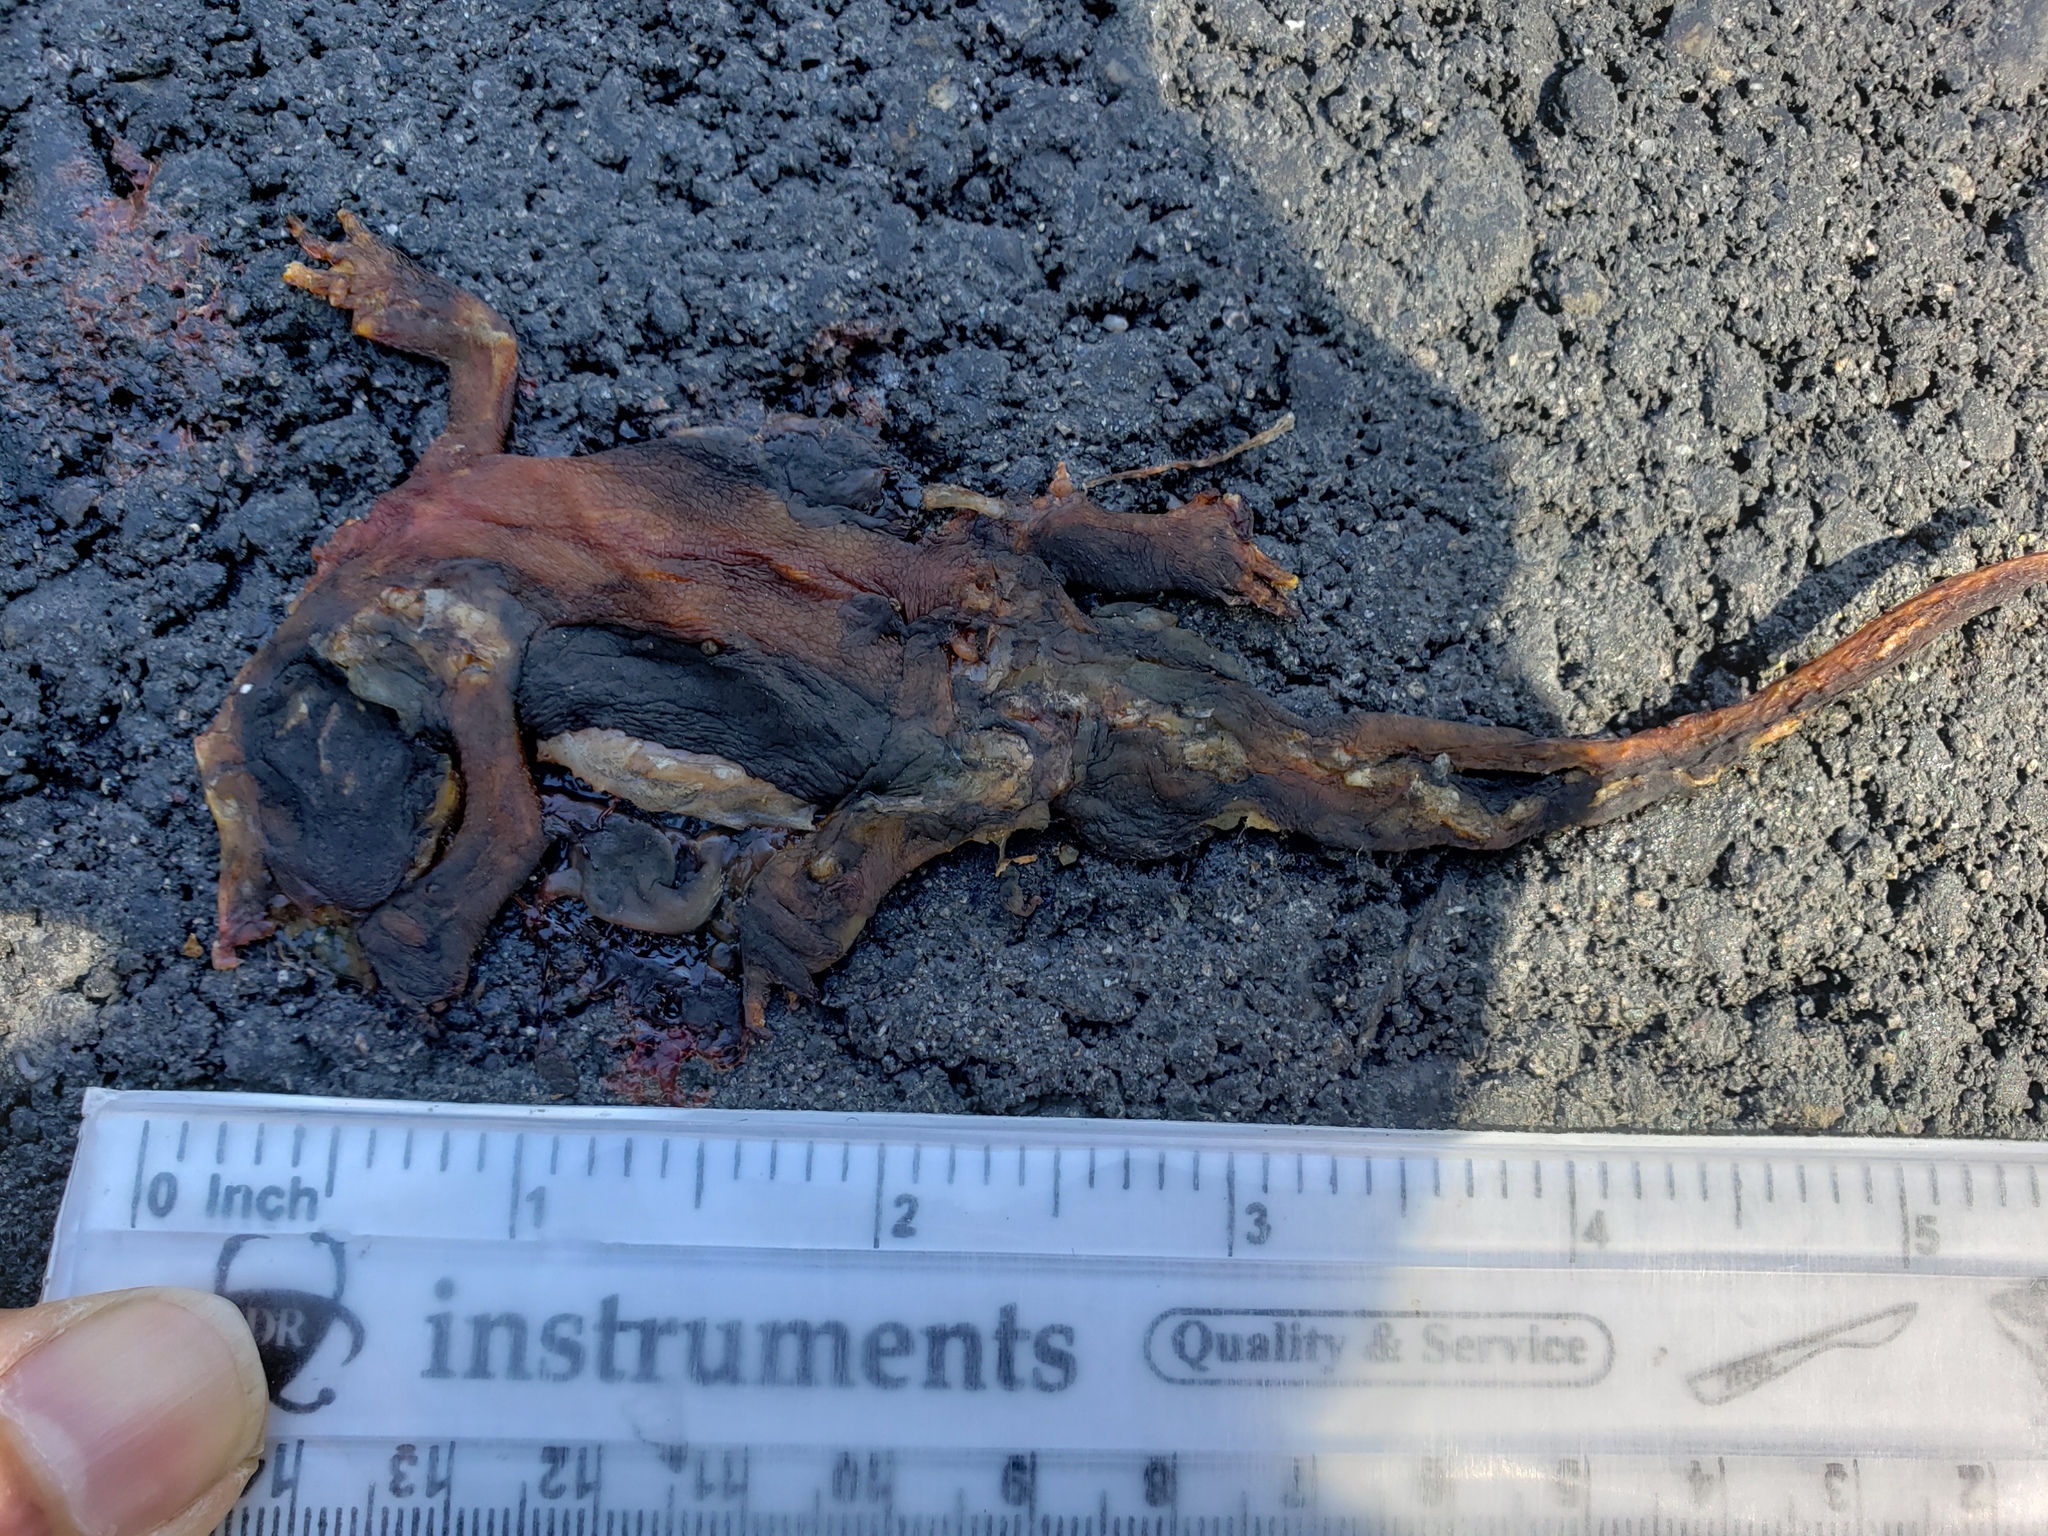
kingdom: Animalia
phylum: Chordata
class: Amphibia
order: Caudata
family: Salamandridae
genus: Taricha
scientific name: Taricha
